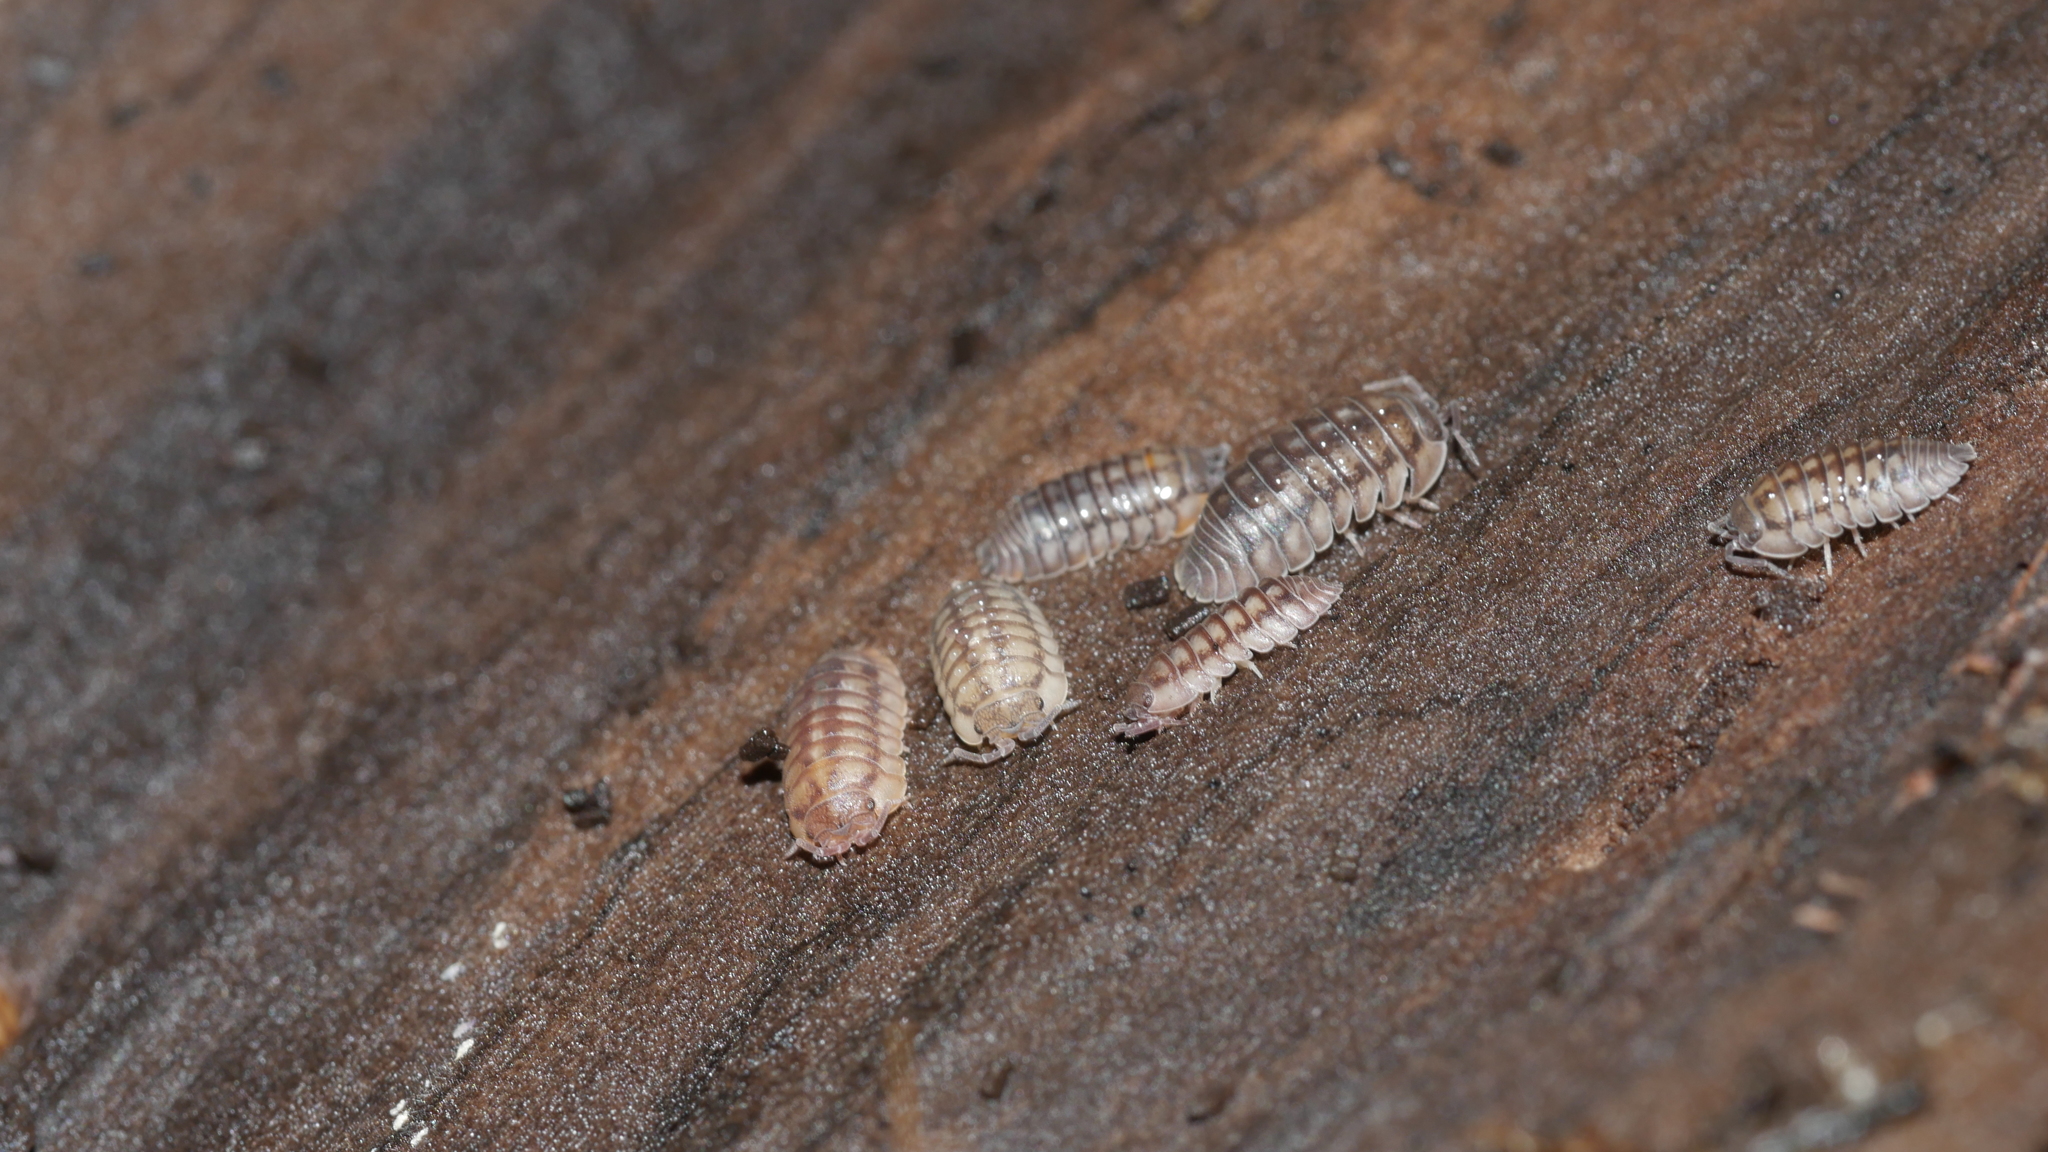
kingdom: Animalia
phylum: Arthropoda
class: Malacostraca
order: Isopoda
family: Armadillidiidae
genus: Armadillidium
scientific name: Armadillidium nasatum
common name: Isopod
